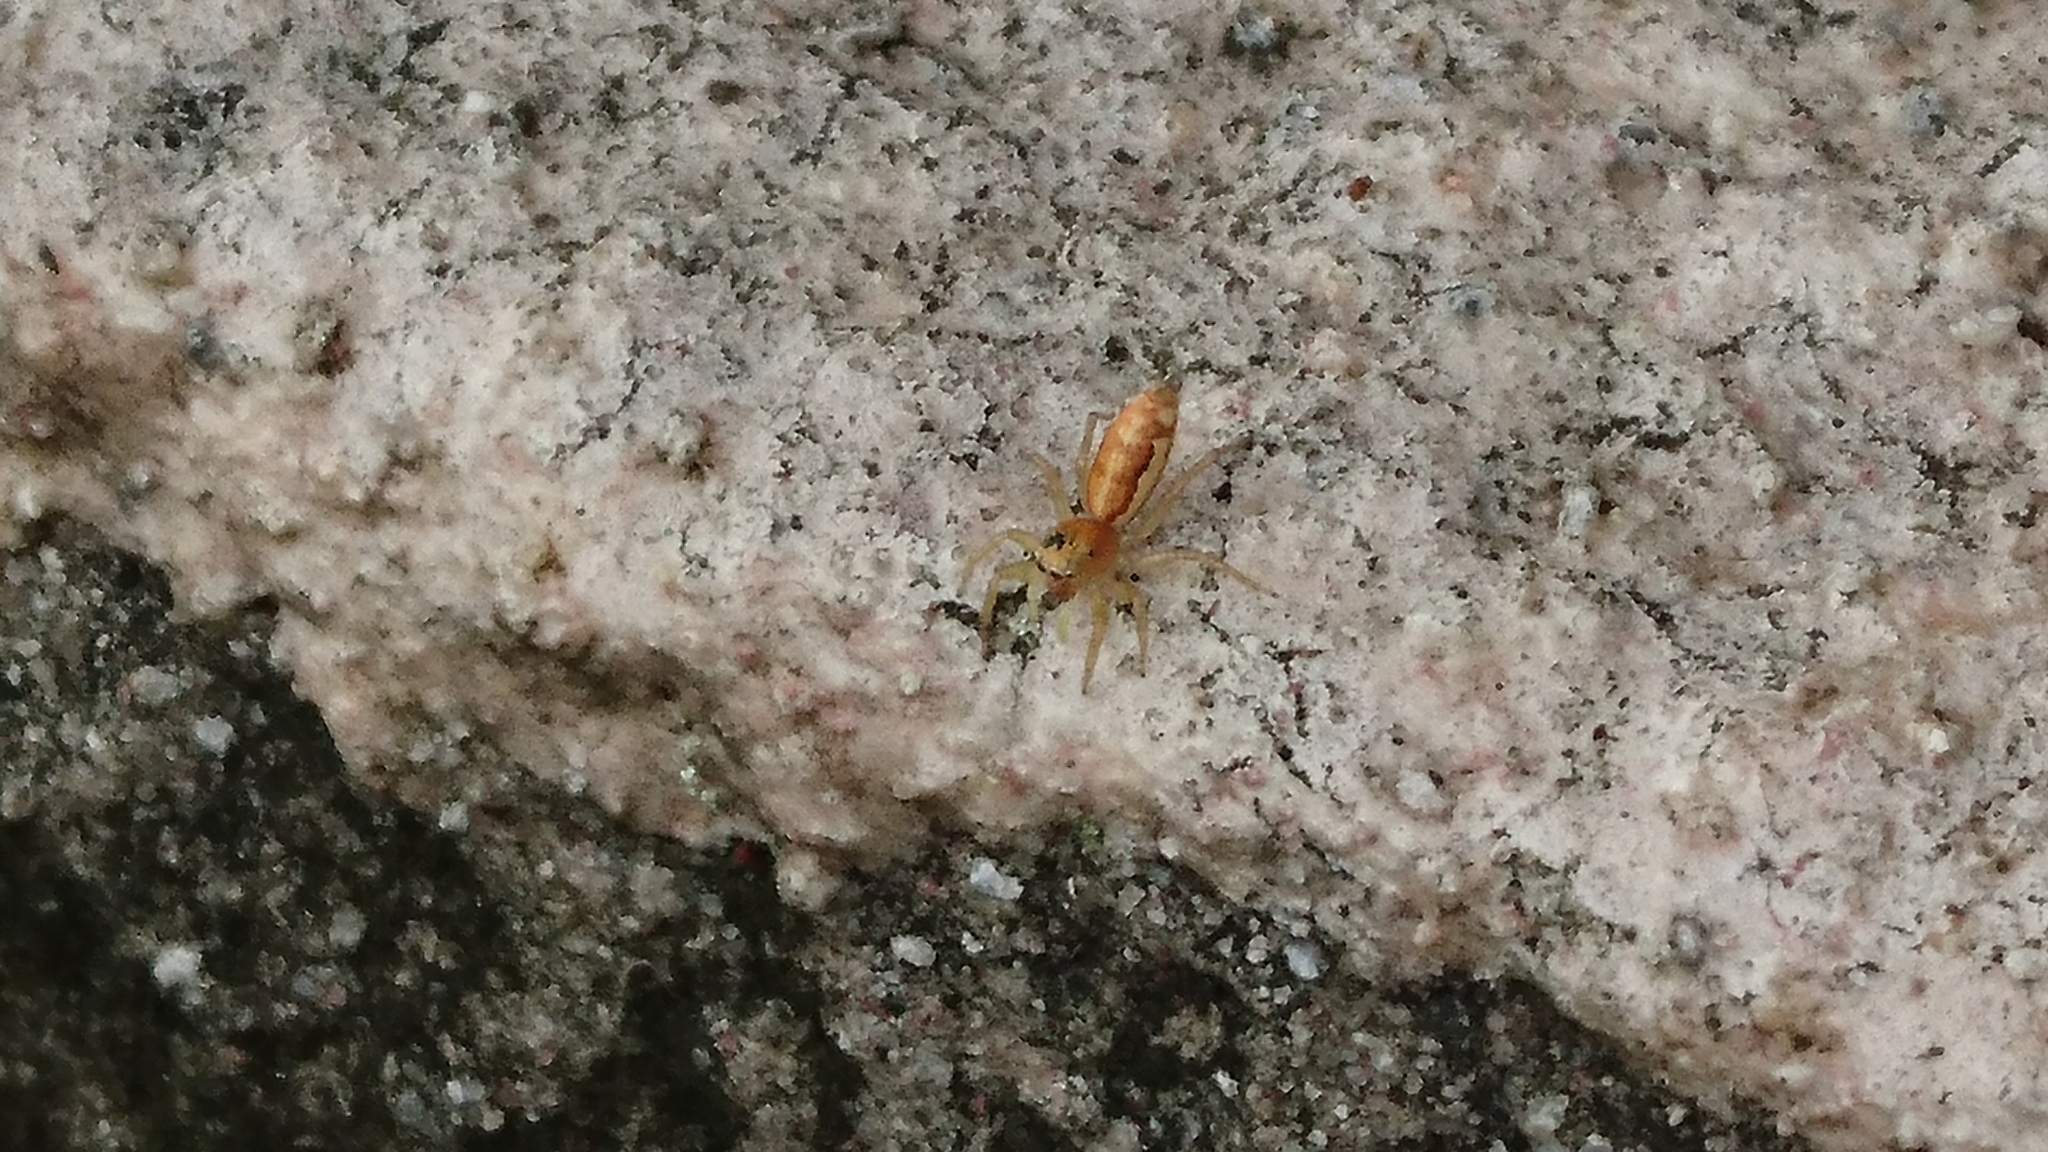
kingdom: Animalia
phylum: Arthropoda
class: Arachnida
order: Araneae
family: Salticidae
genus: Cosmophasis
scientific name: Cosmophasis lami
